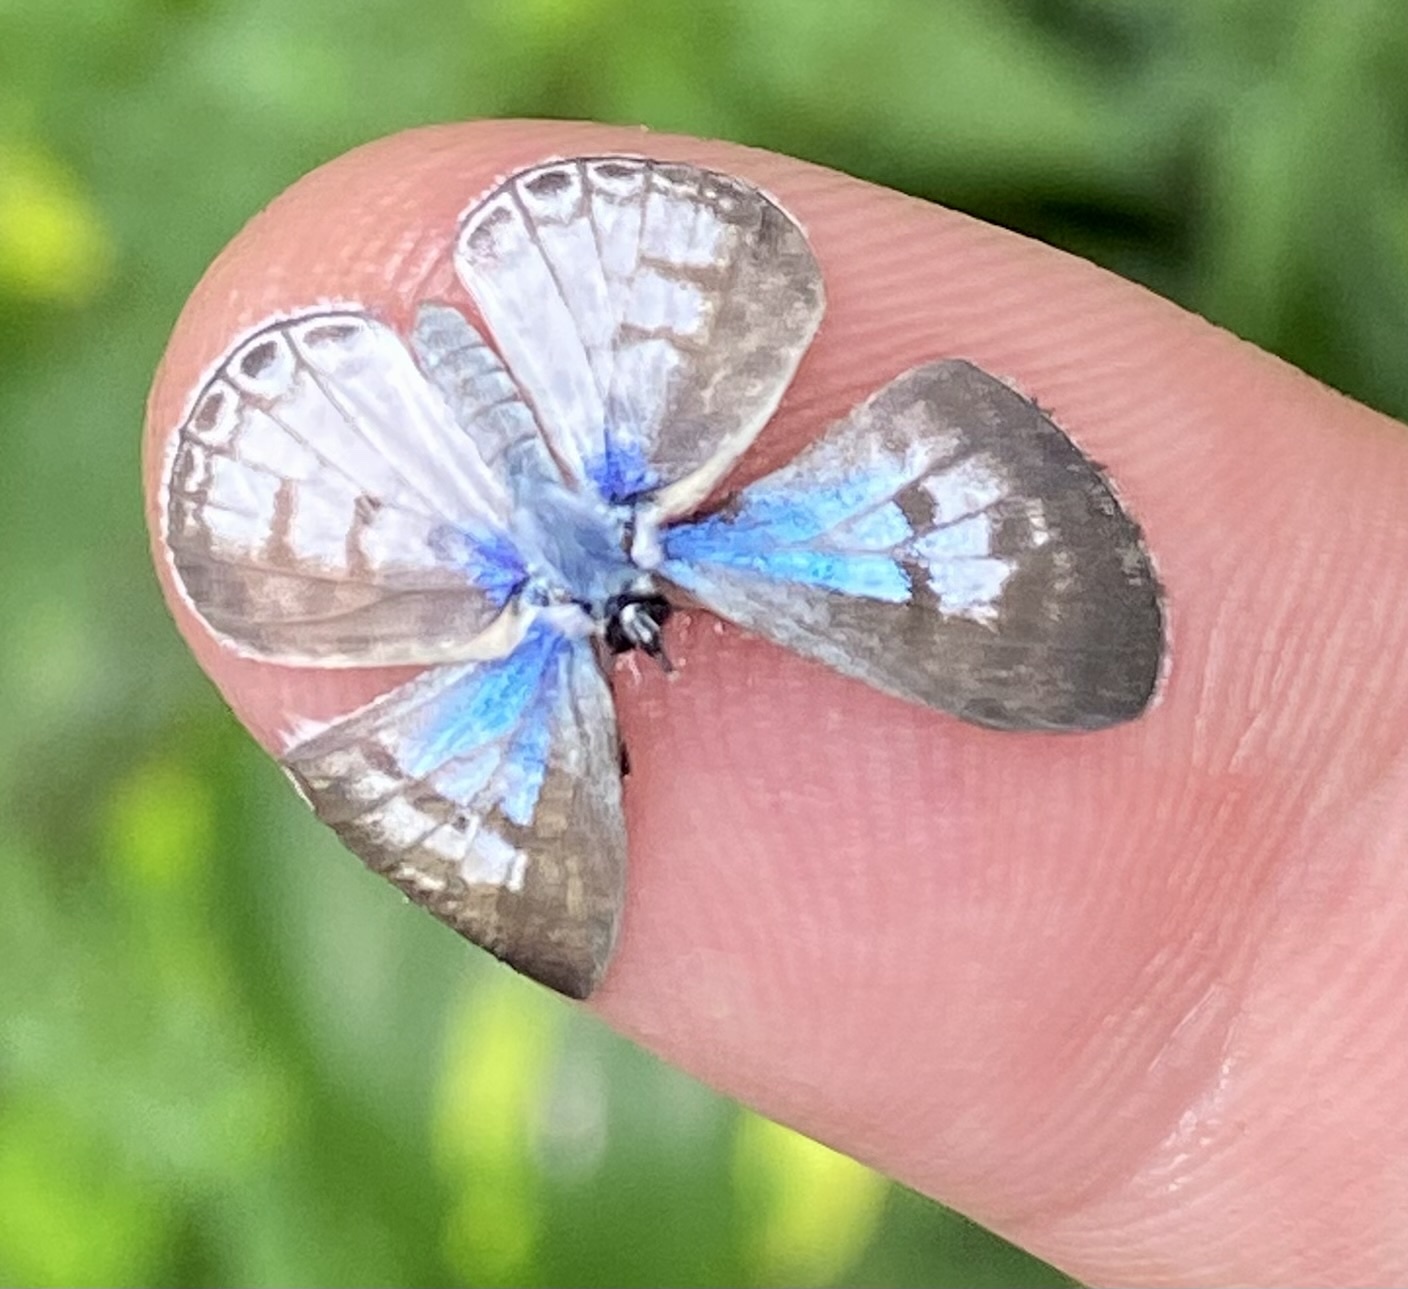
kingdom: Animalia
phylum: Arthropoda
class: Insecta
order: Lepidoptera
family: Lycaenidae
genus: Leptotes
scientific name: Leptotes cassius
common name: Cassius blue
